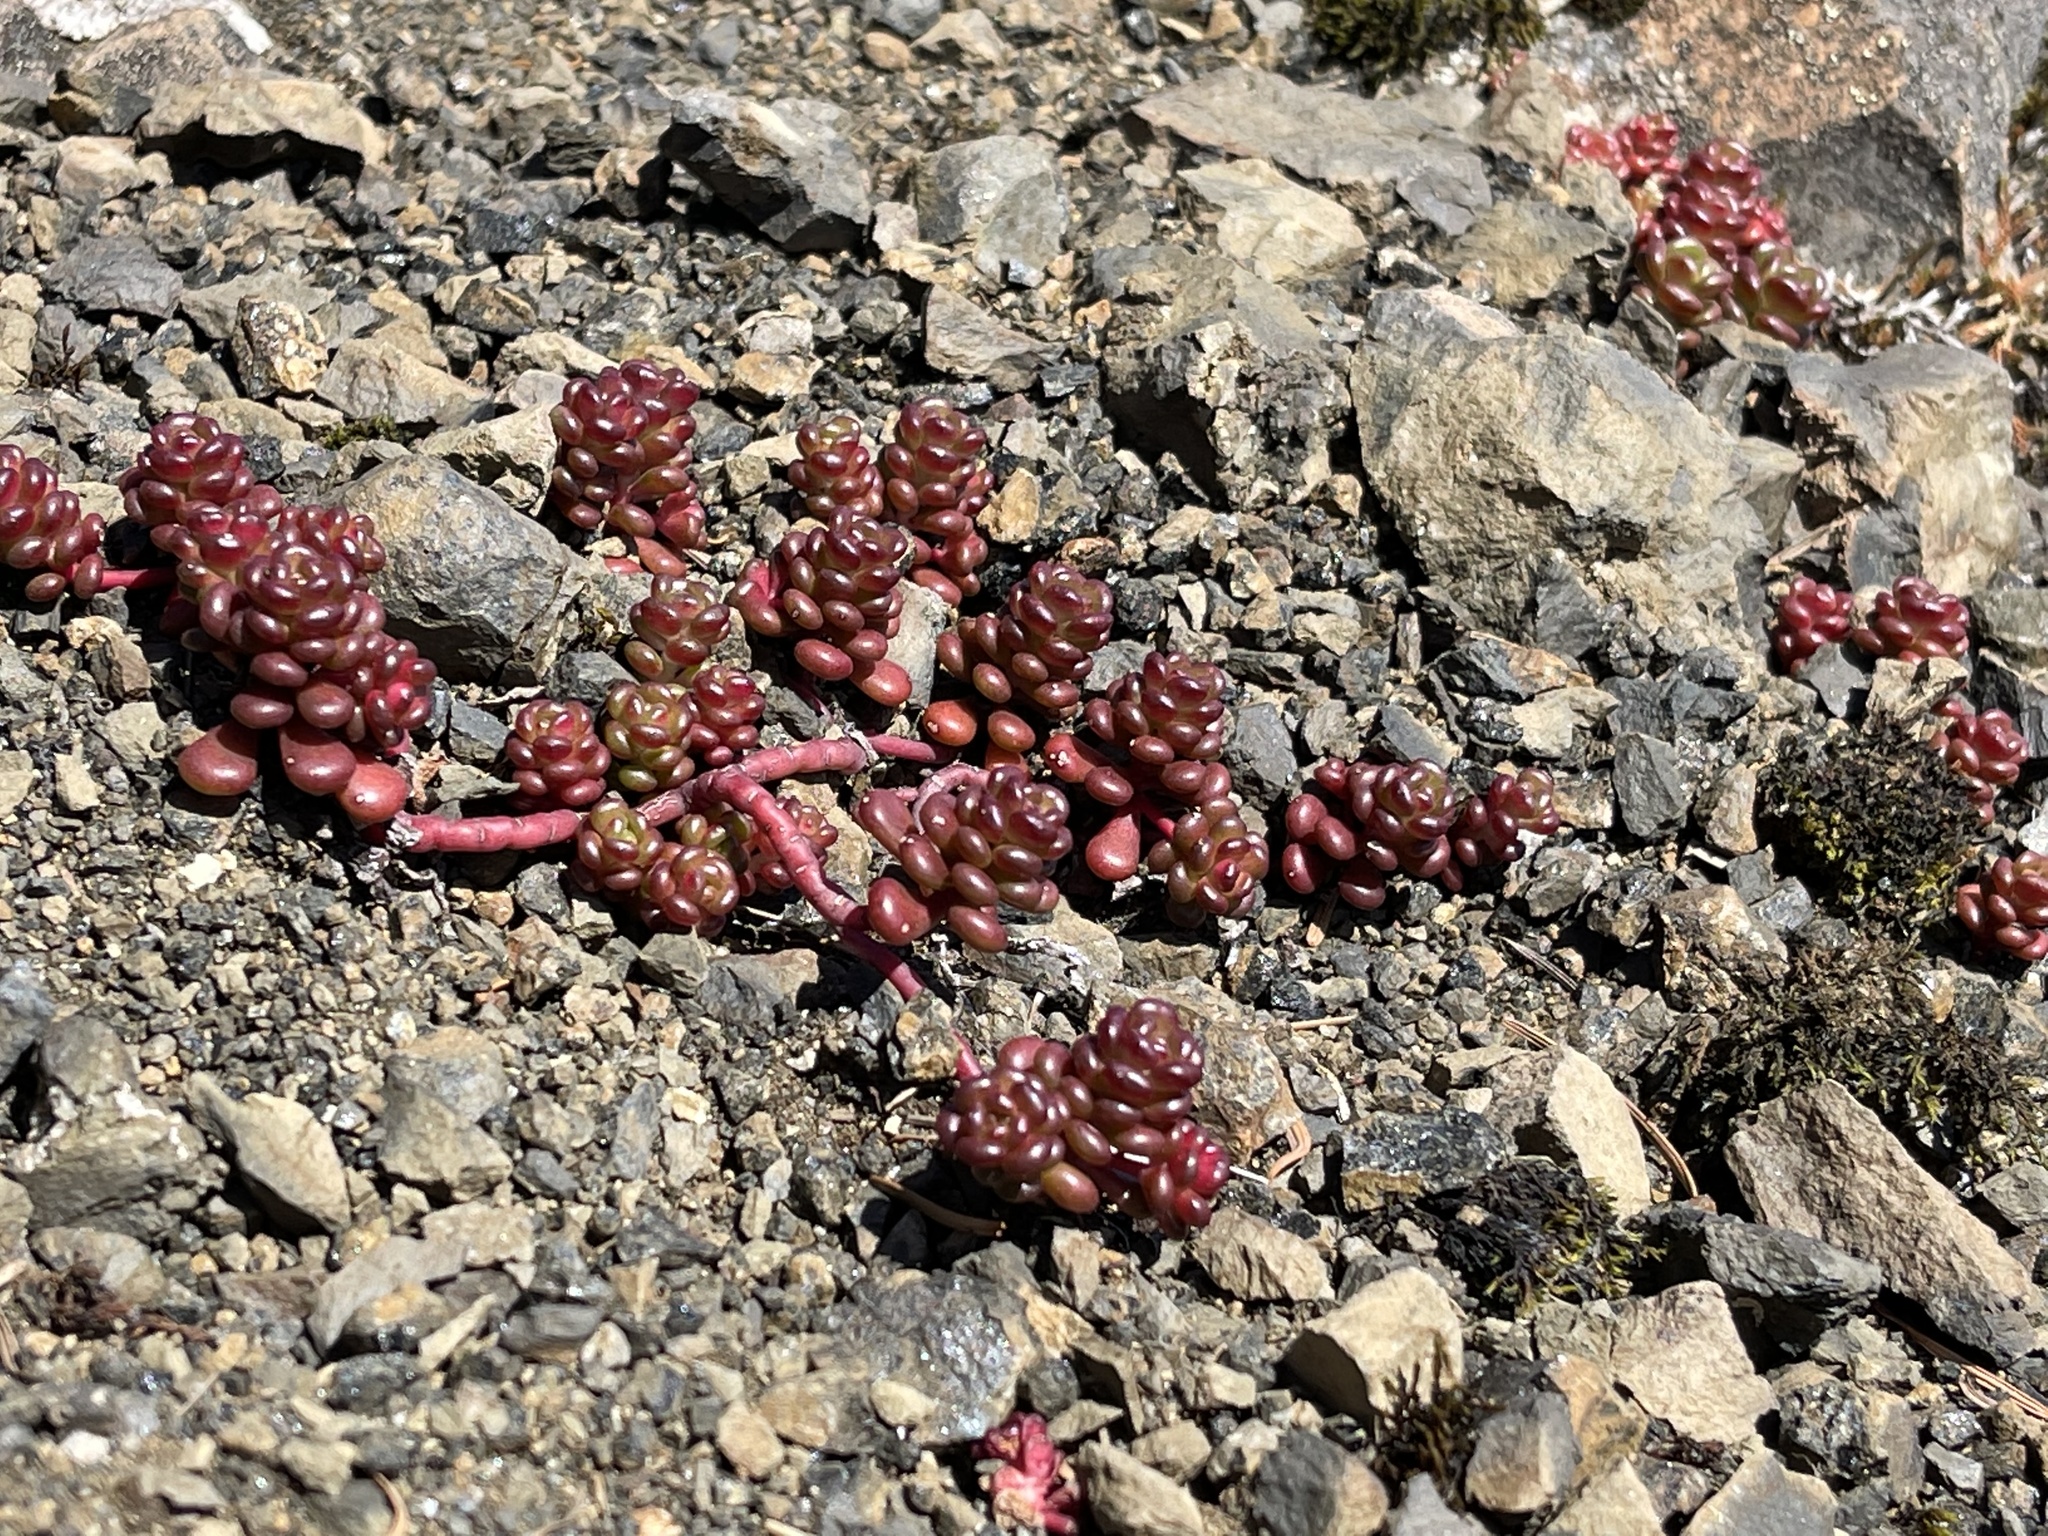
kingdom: Plantae
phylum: Tracheophyta
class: Magnoliopsida
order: Saxifragales
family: Crassulaceae
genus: Sedum
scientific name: Sedum oreganum
